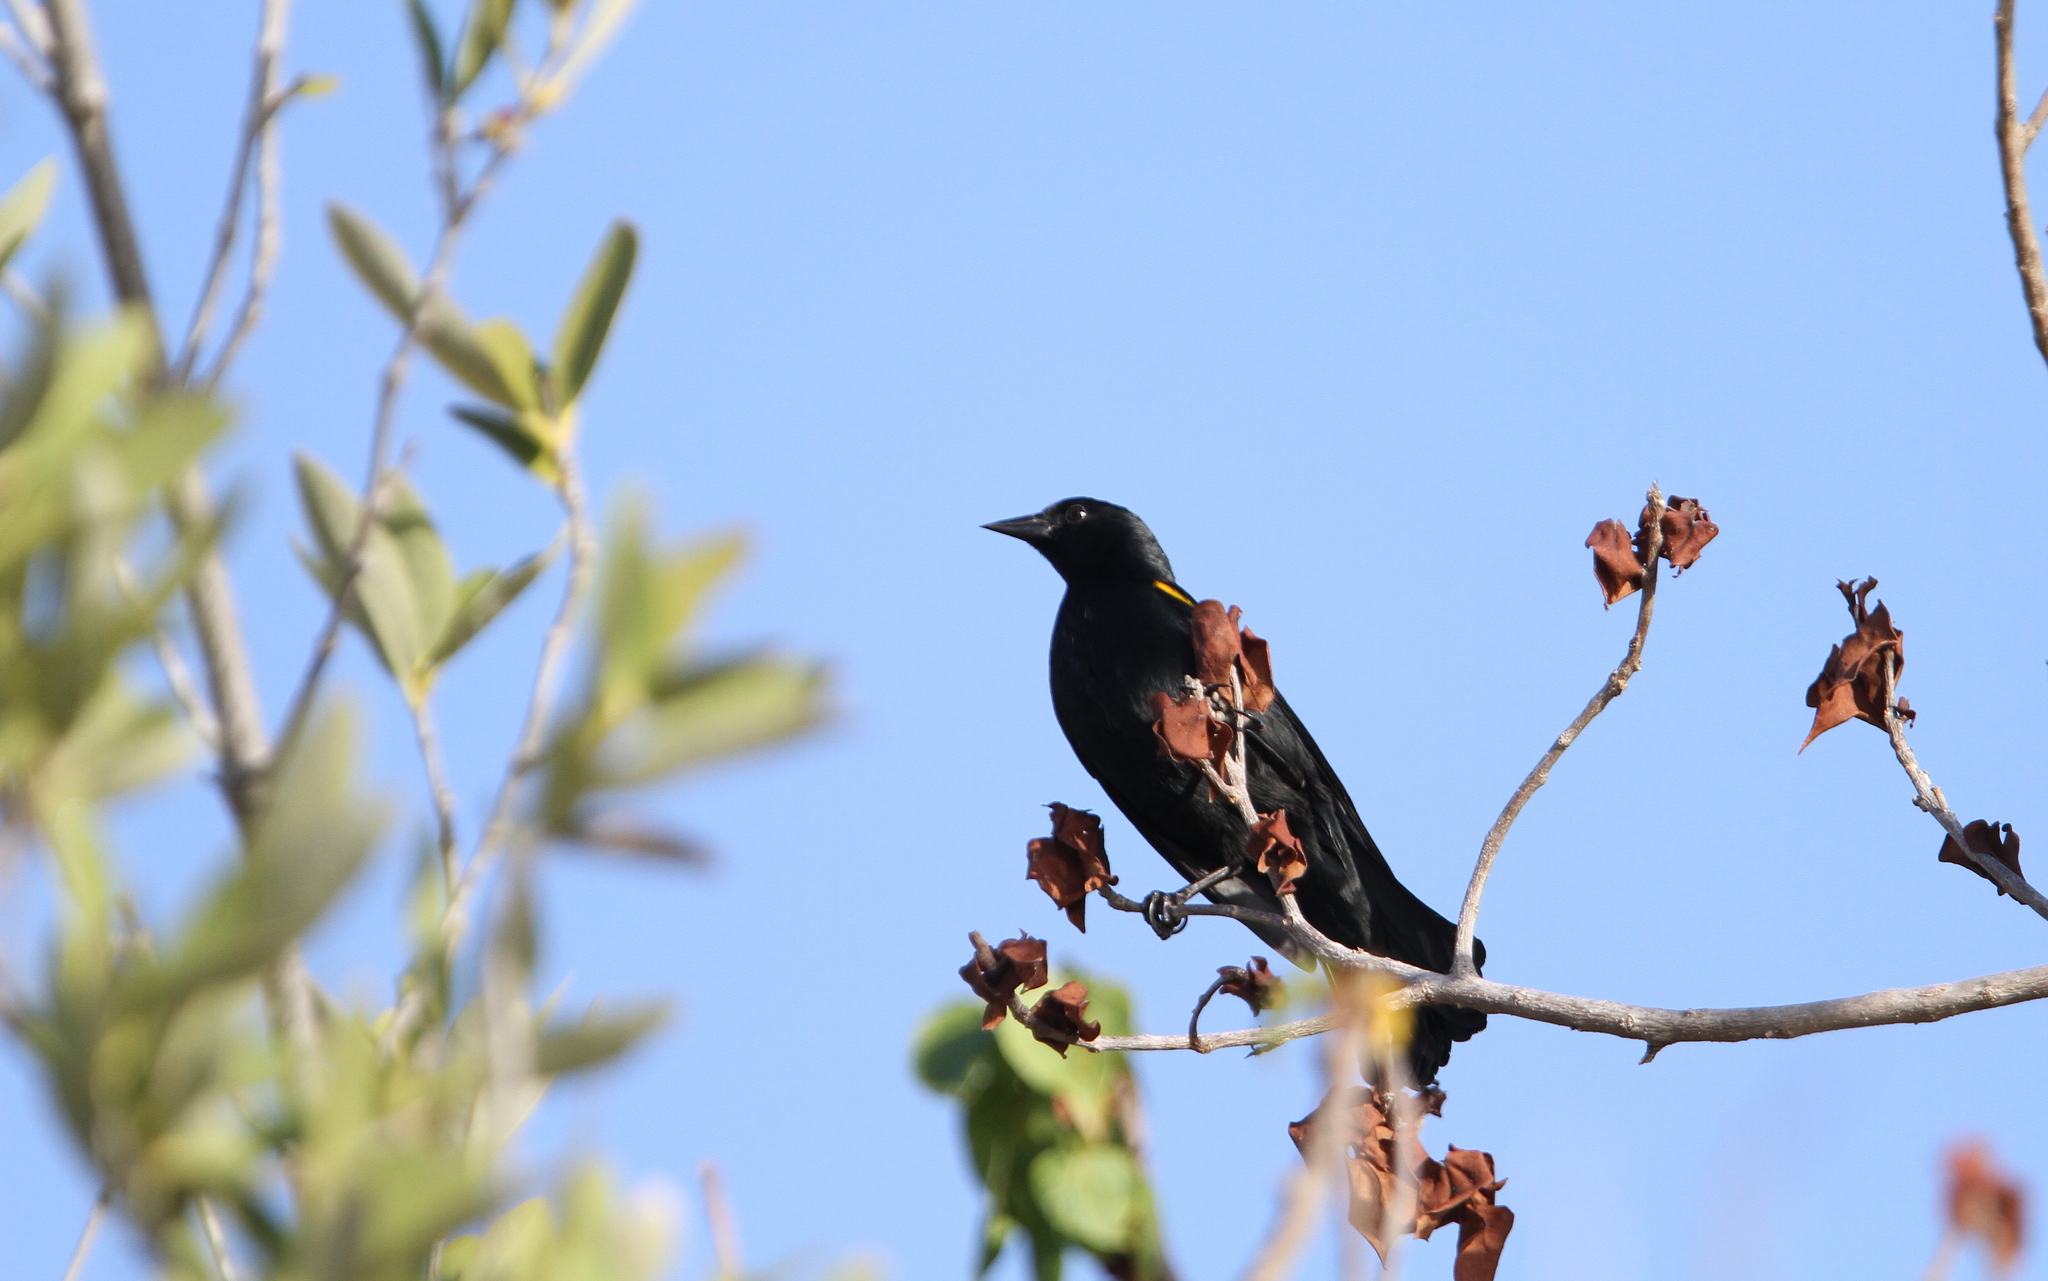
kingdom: Animalia
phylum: Chordata
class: Aves
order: Passeriformes
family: Icteridae
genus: Agelaius
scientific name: Agelaius xanthomus
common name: Yellow-shouldered blackbird
